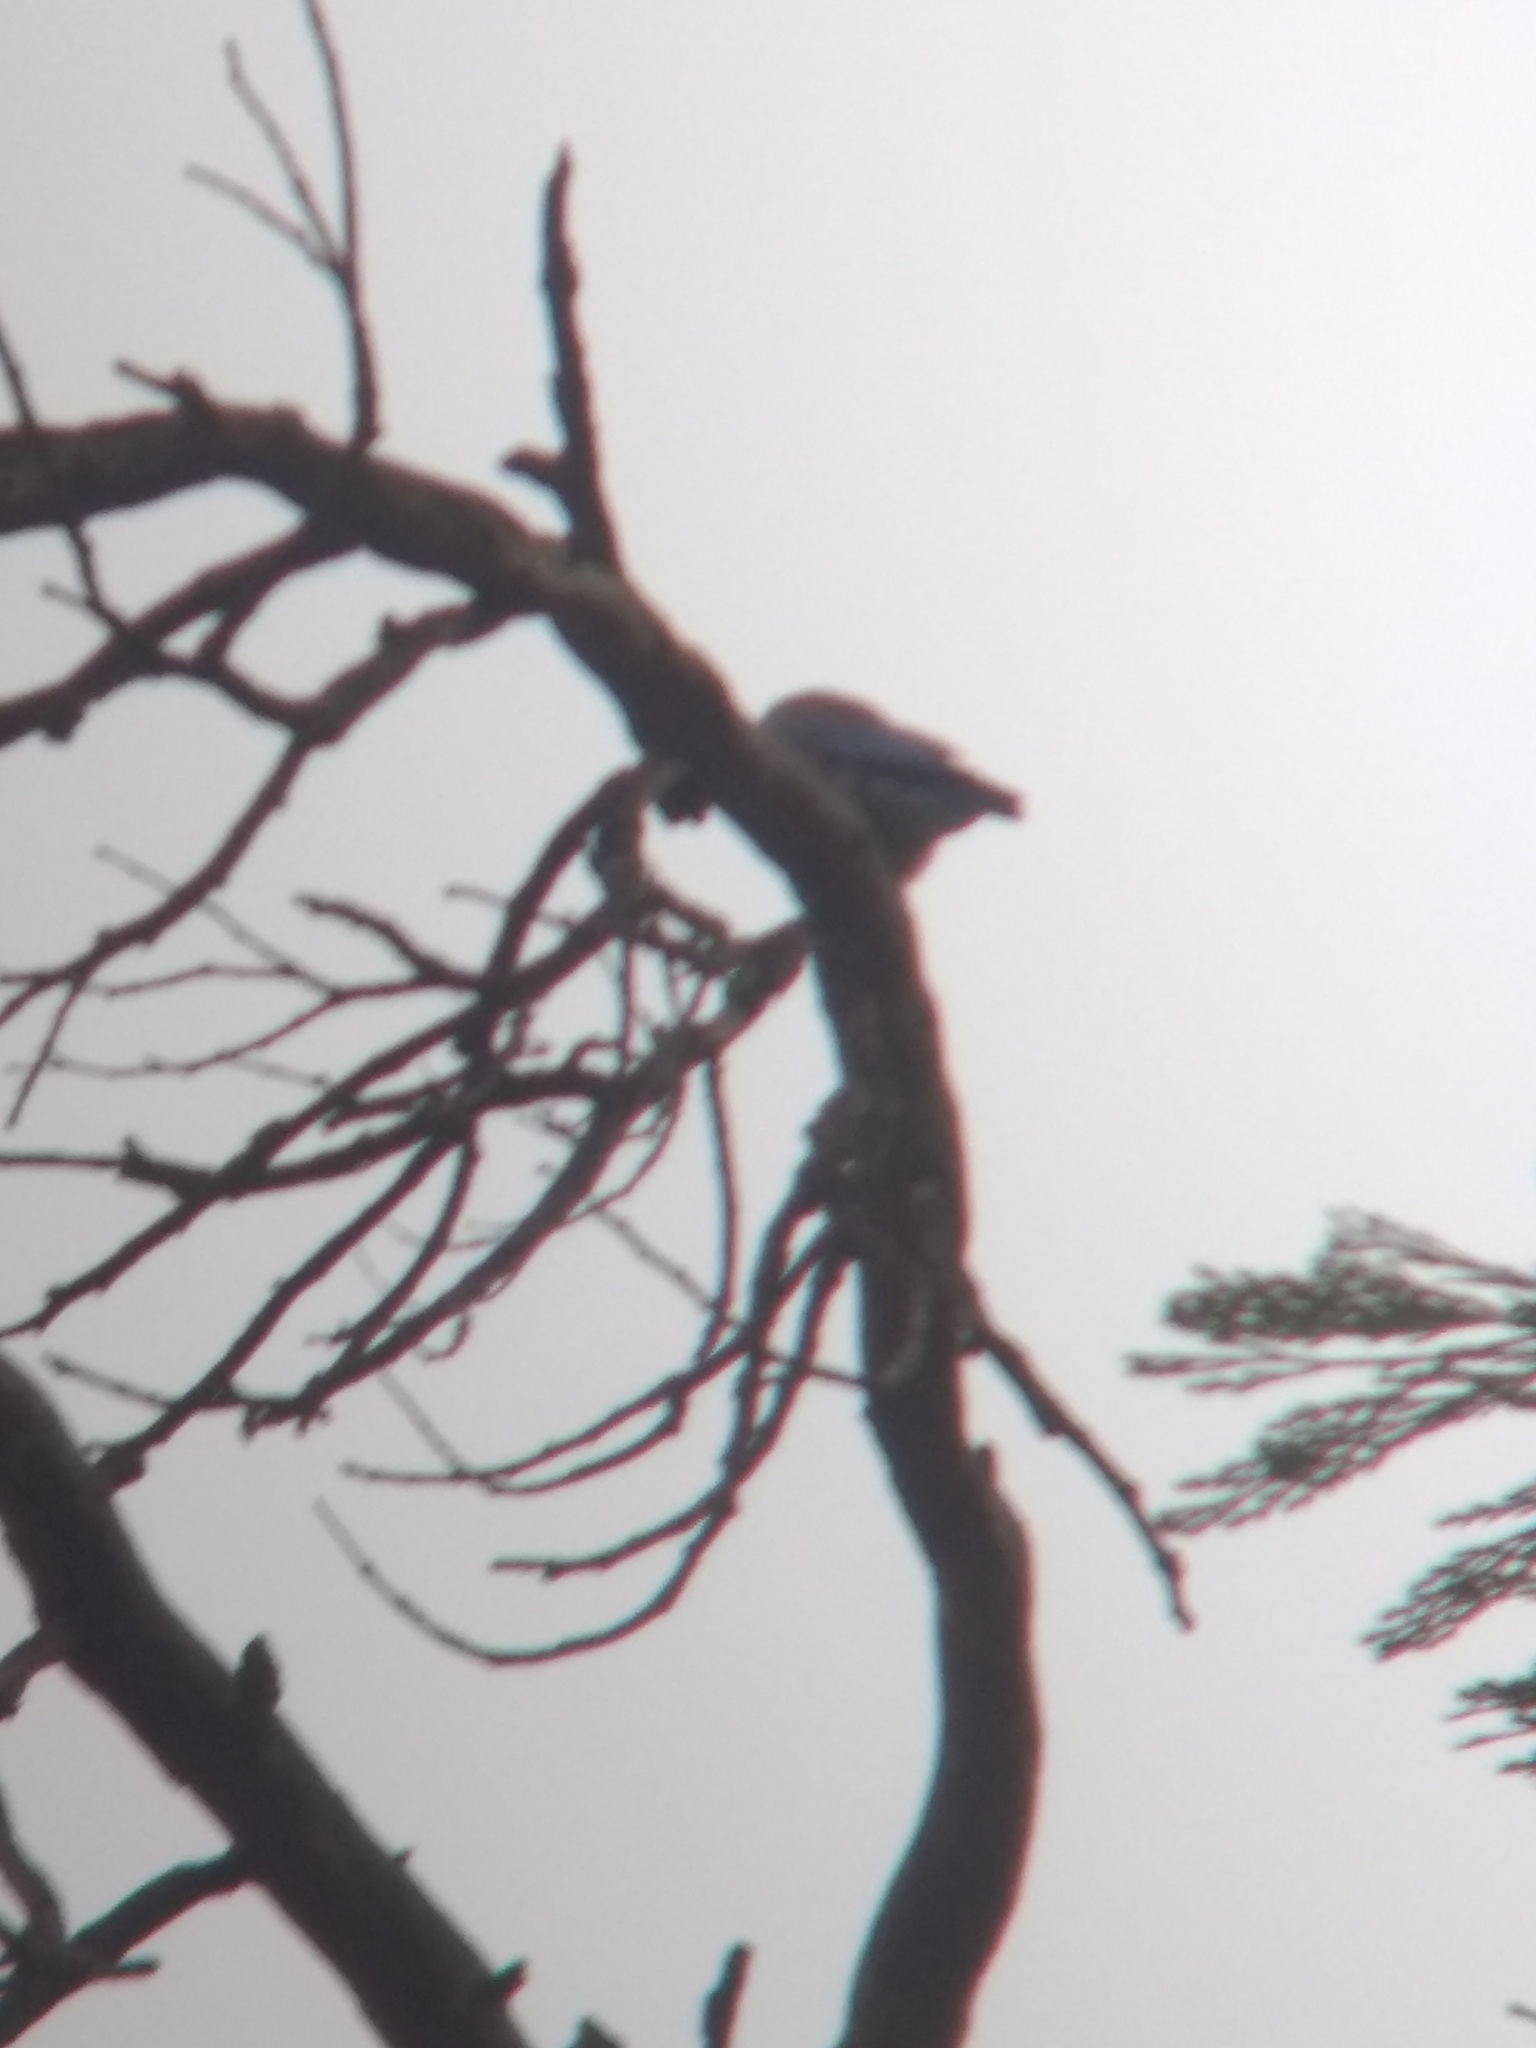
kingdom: Animalia
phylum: Chordata
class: Aves
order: Passeriformes
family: Turdidae
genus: Sialia
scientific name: Sialia mexicana
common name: Western bluebird
